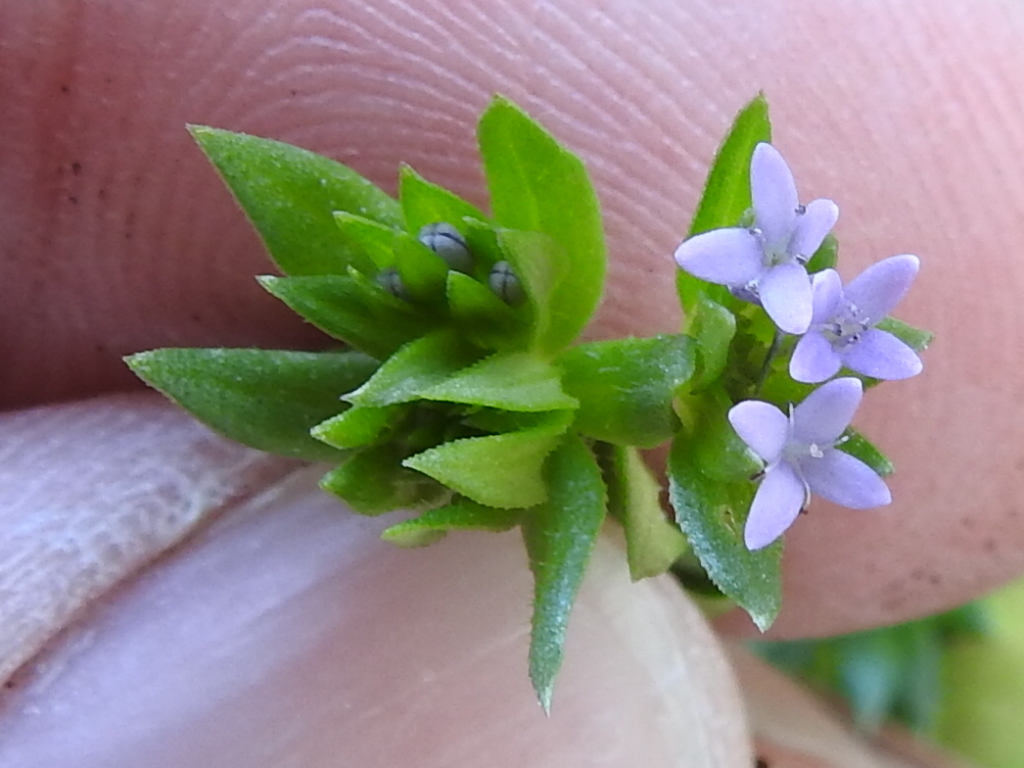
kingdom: Plantae
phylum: Tracheophyta
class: Magnoliopsida
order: Gentianales
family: Rubiaceae
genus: Sherardia
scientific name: Sherardia arvensis
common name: Field madder
